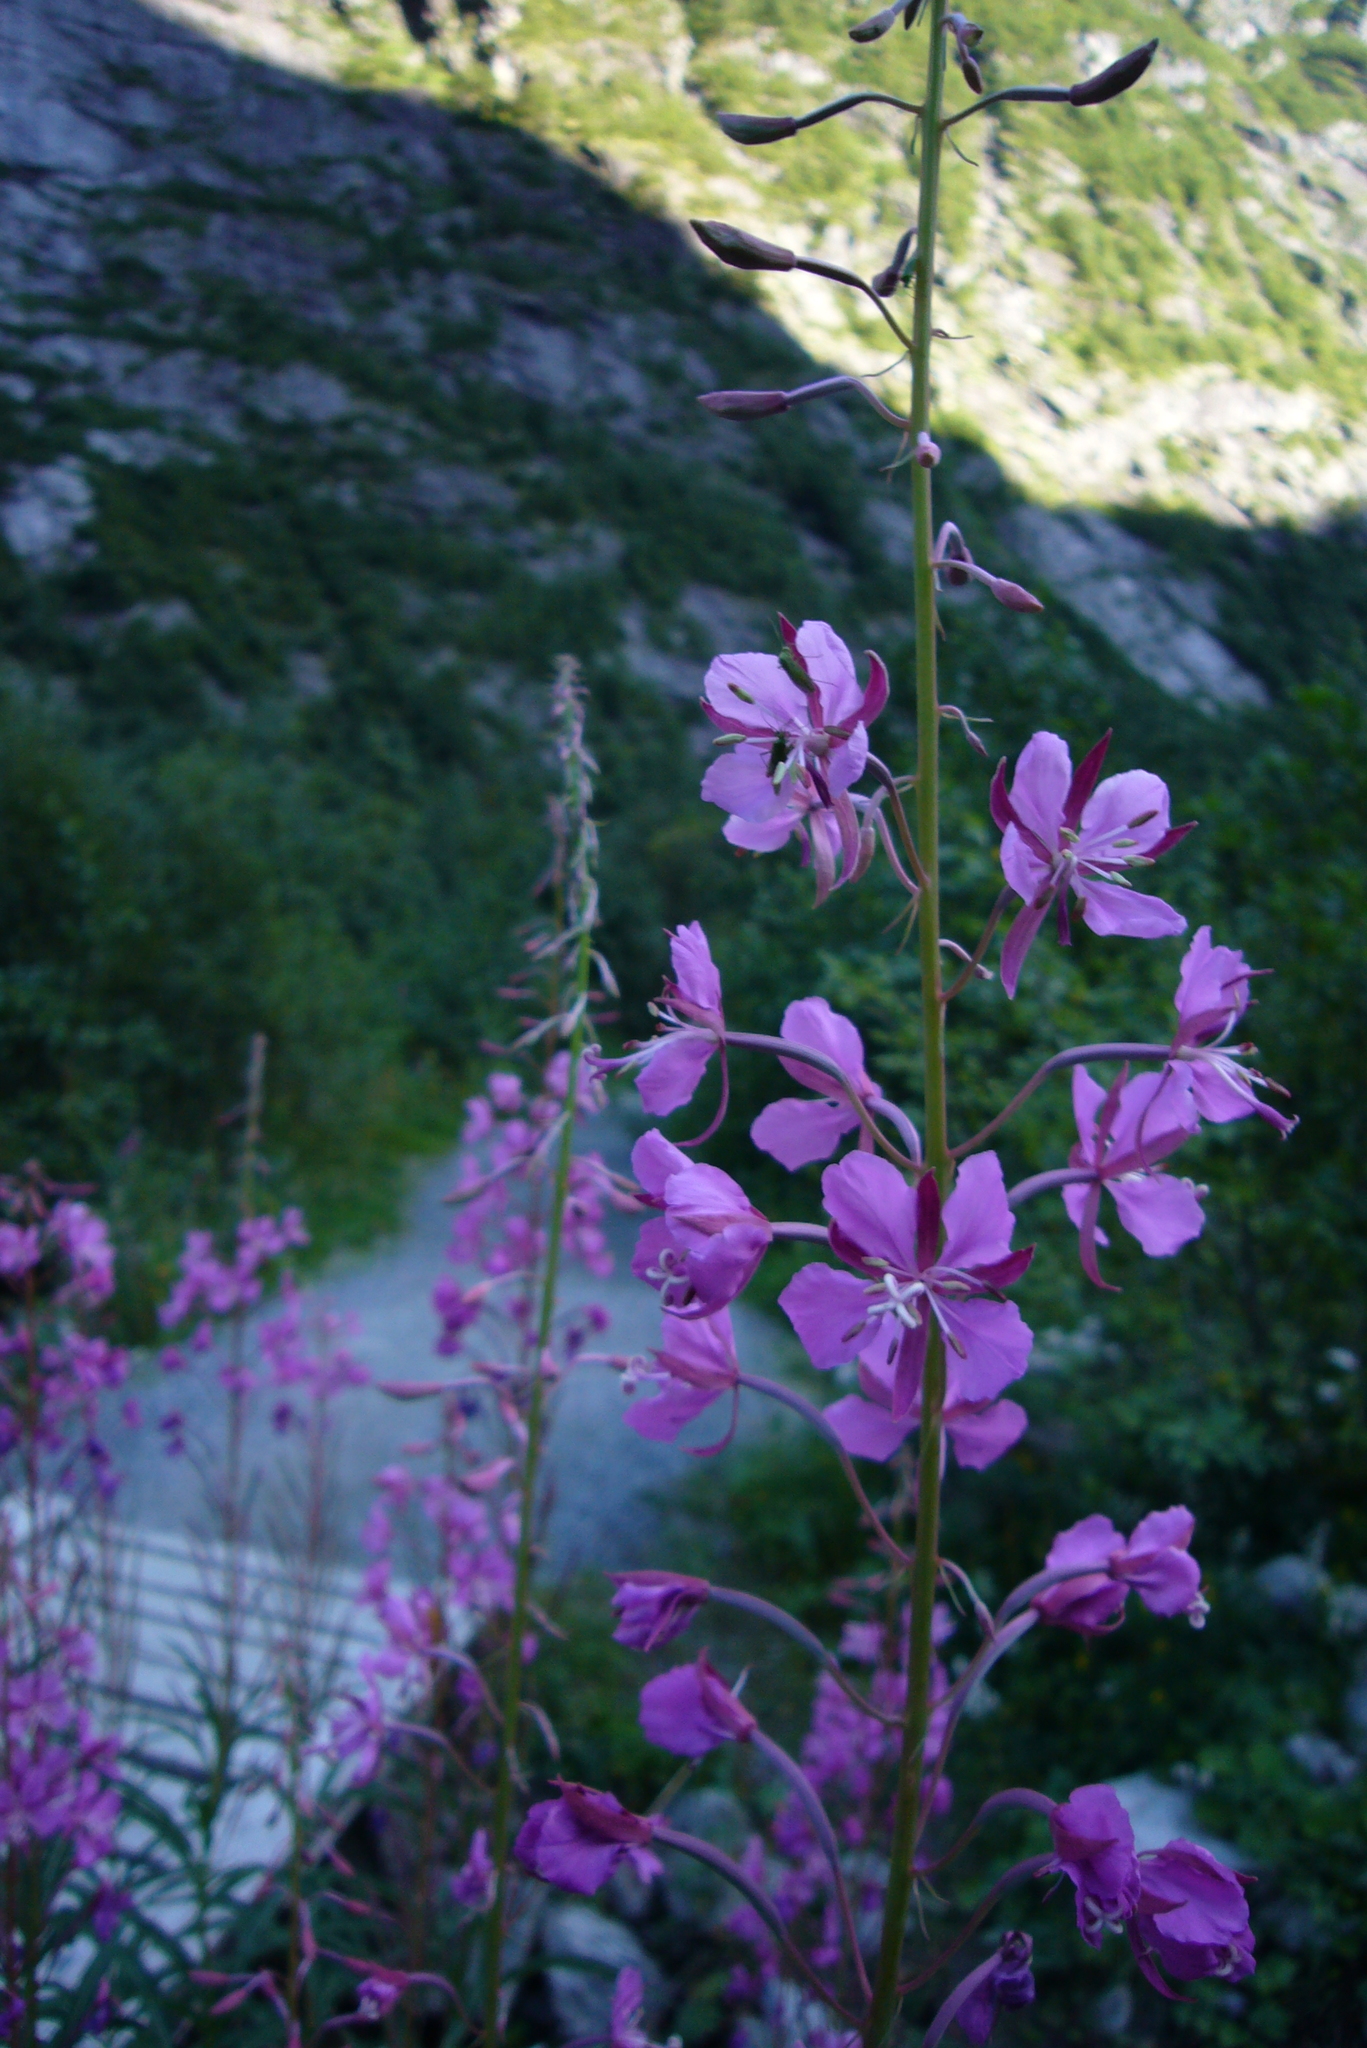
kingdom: Plantae
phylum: Tracheophyta
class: Magnoliopsida
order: Myrtales
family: Onagraceae
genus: Chamaenerion
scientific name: Chamaenerion angustifolium
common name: Fireweed
